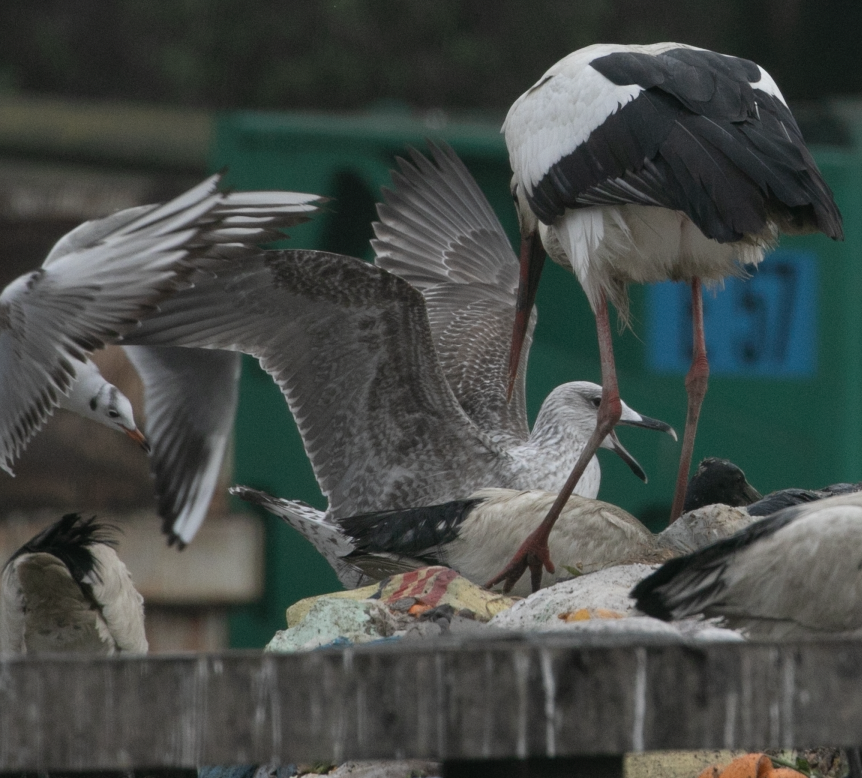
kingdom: Animalia
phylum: Chordata
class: Aves
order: Charadriiformes
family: Laridae
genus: Larus
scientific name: Larus michahellis
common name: Yellow-legged gull
